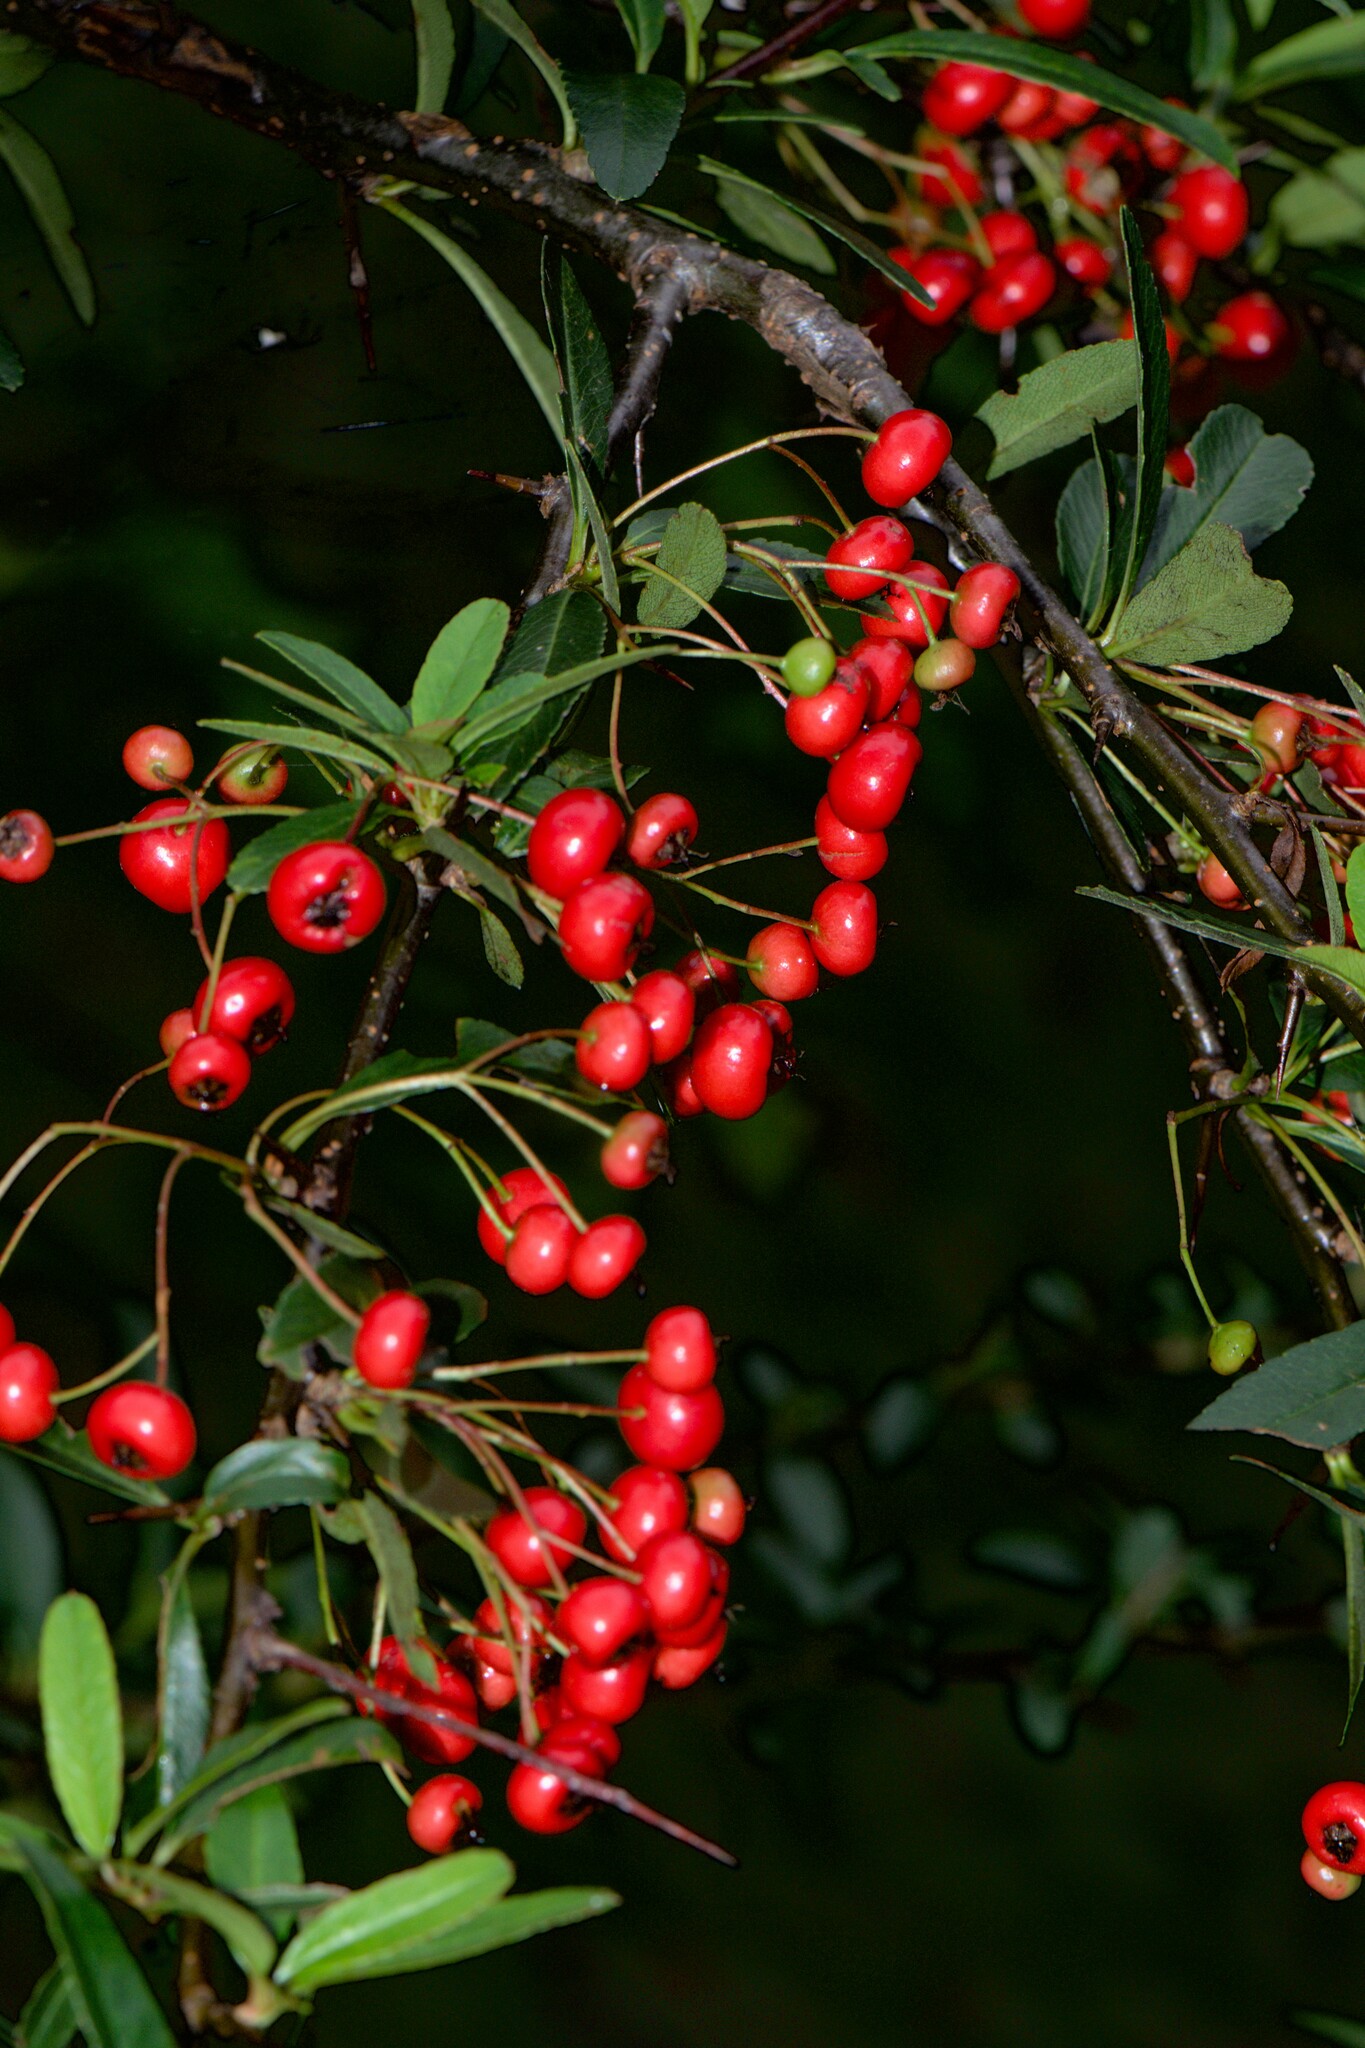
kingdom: Plantae
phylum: Tracheophyta
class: Magnoliopsida
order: Rosales
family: Rosaceae
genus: Pyracantha
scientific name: Pyracantha crenulata
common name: Nepalese firethorn
